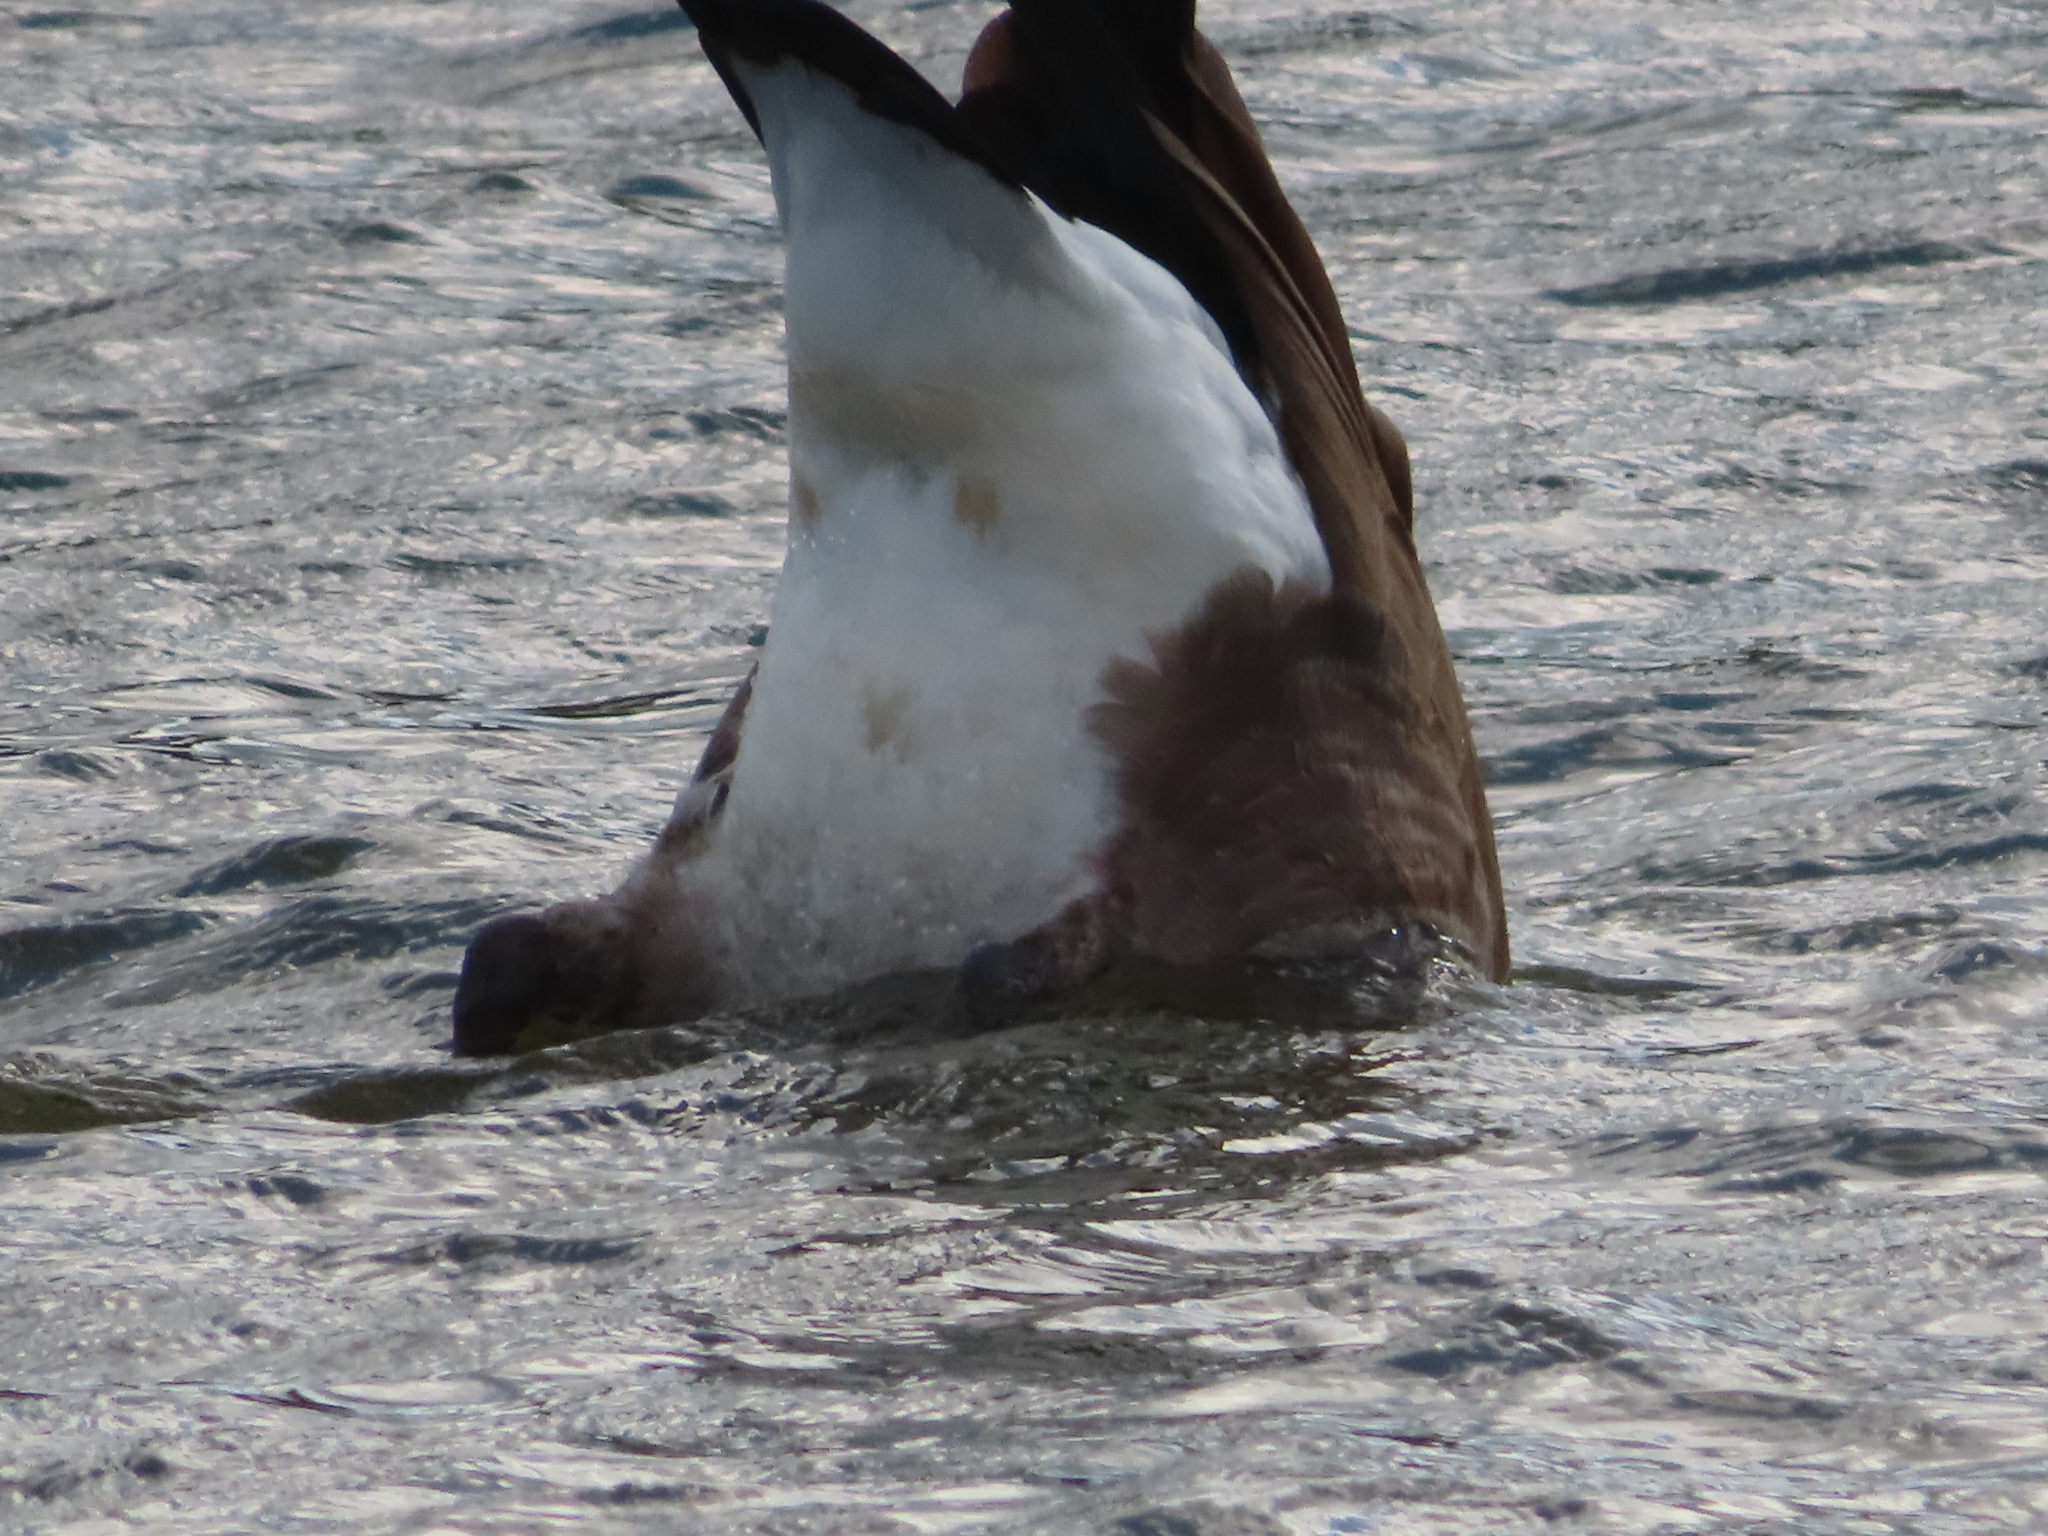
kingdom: Animalia
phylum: Chordata
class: Aves
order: Anseriformes
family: Anatidae
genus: Branta
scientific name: Branta canadensis
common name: Canada goose
